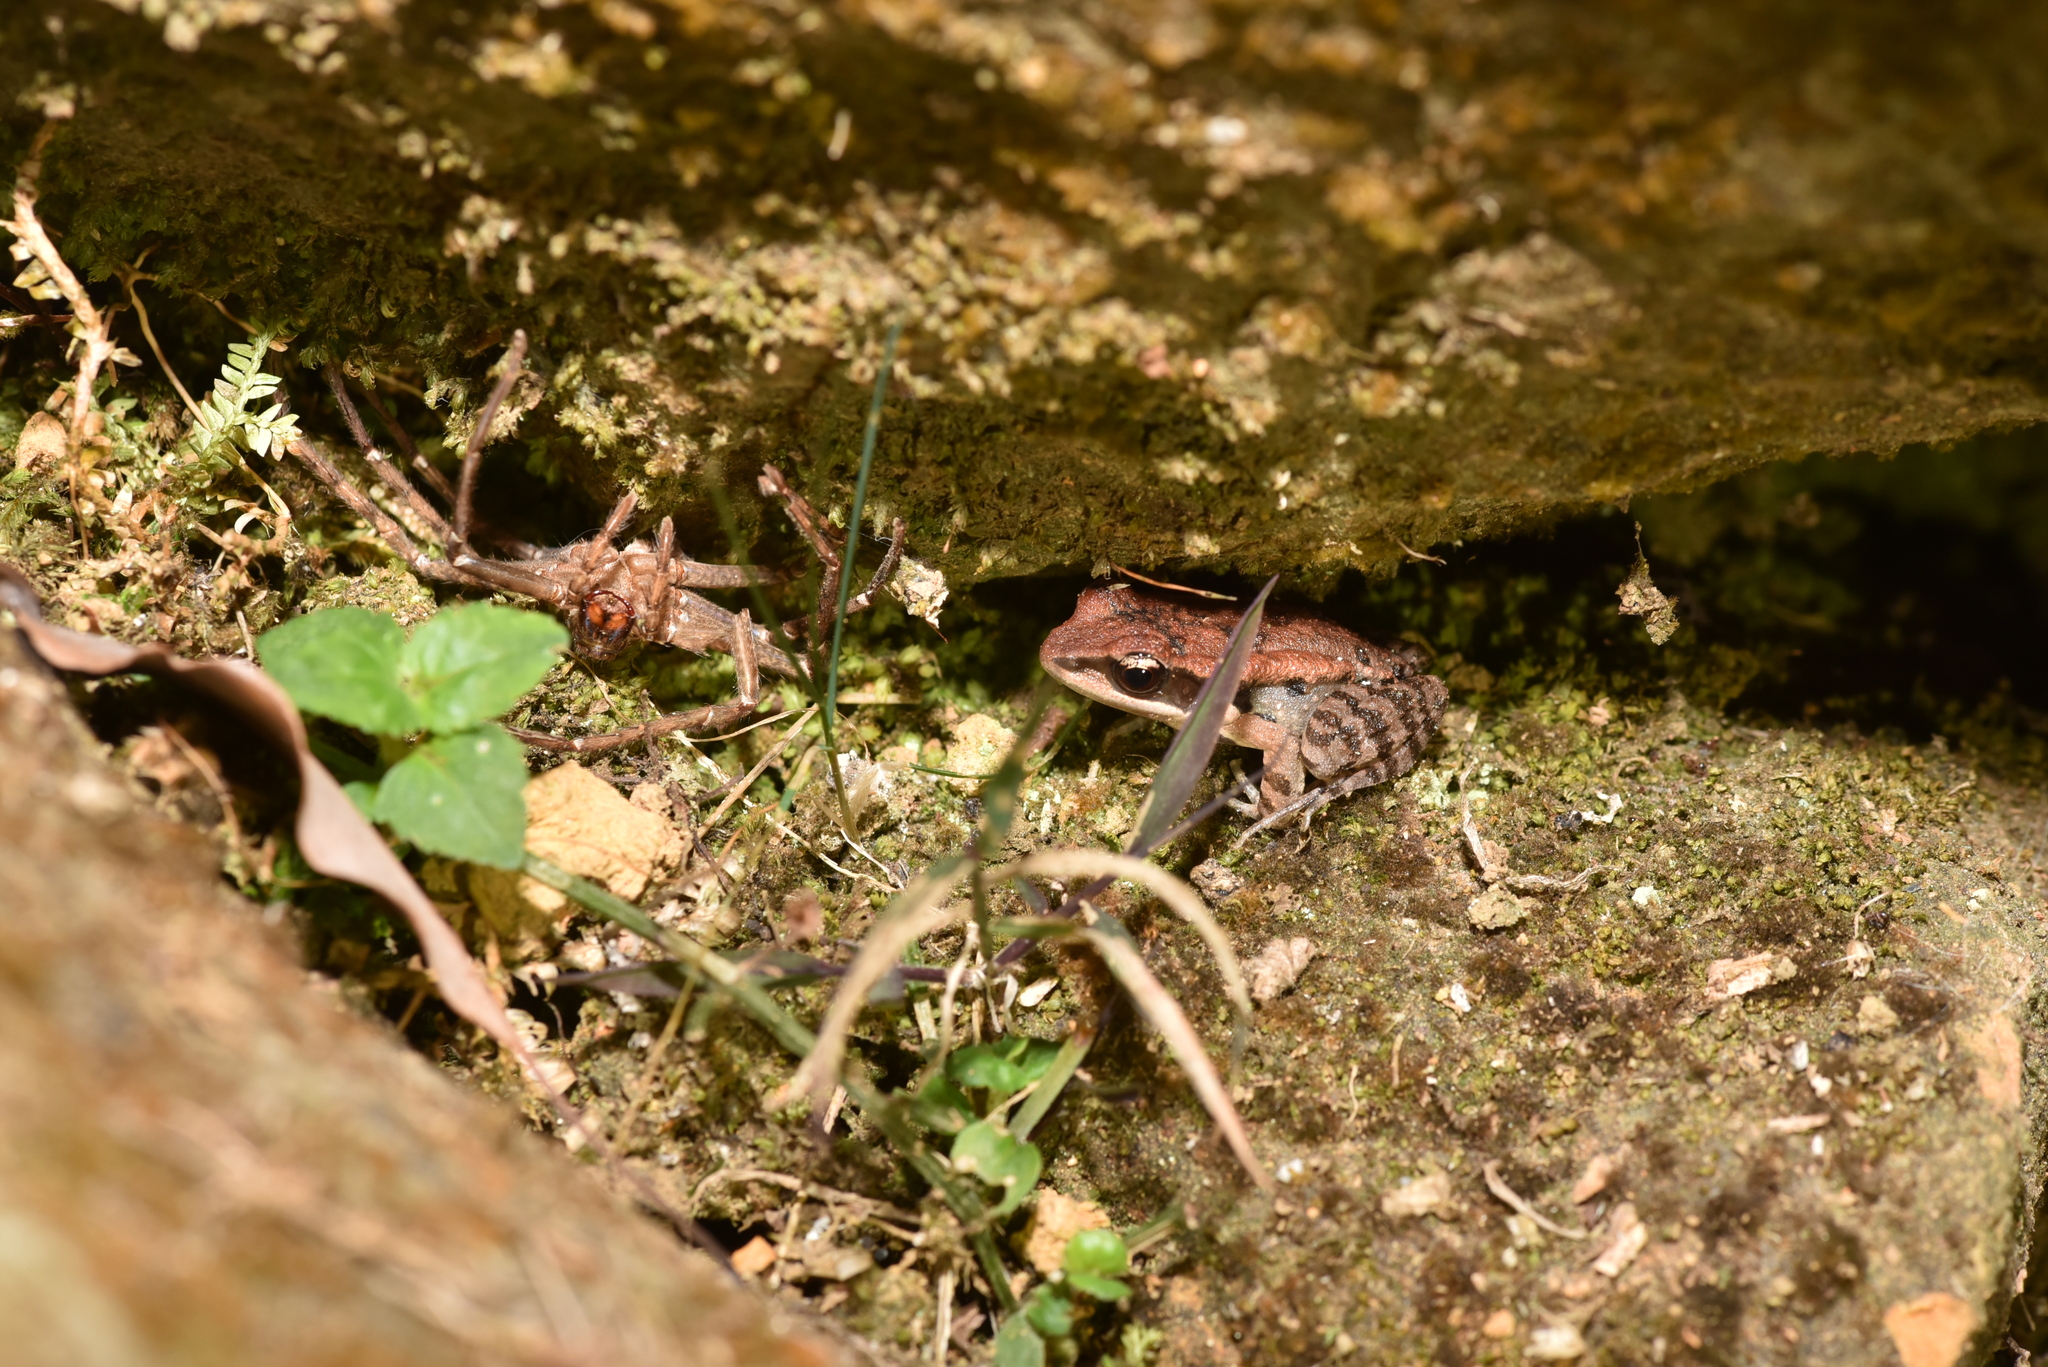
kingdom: Animalia
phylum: Chordata
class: Amphibia
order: Anura
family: Ranidae
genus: Hylarana
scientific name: Hylarana latouchii
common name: Broad-folded frog
